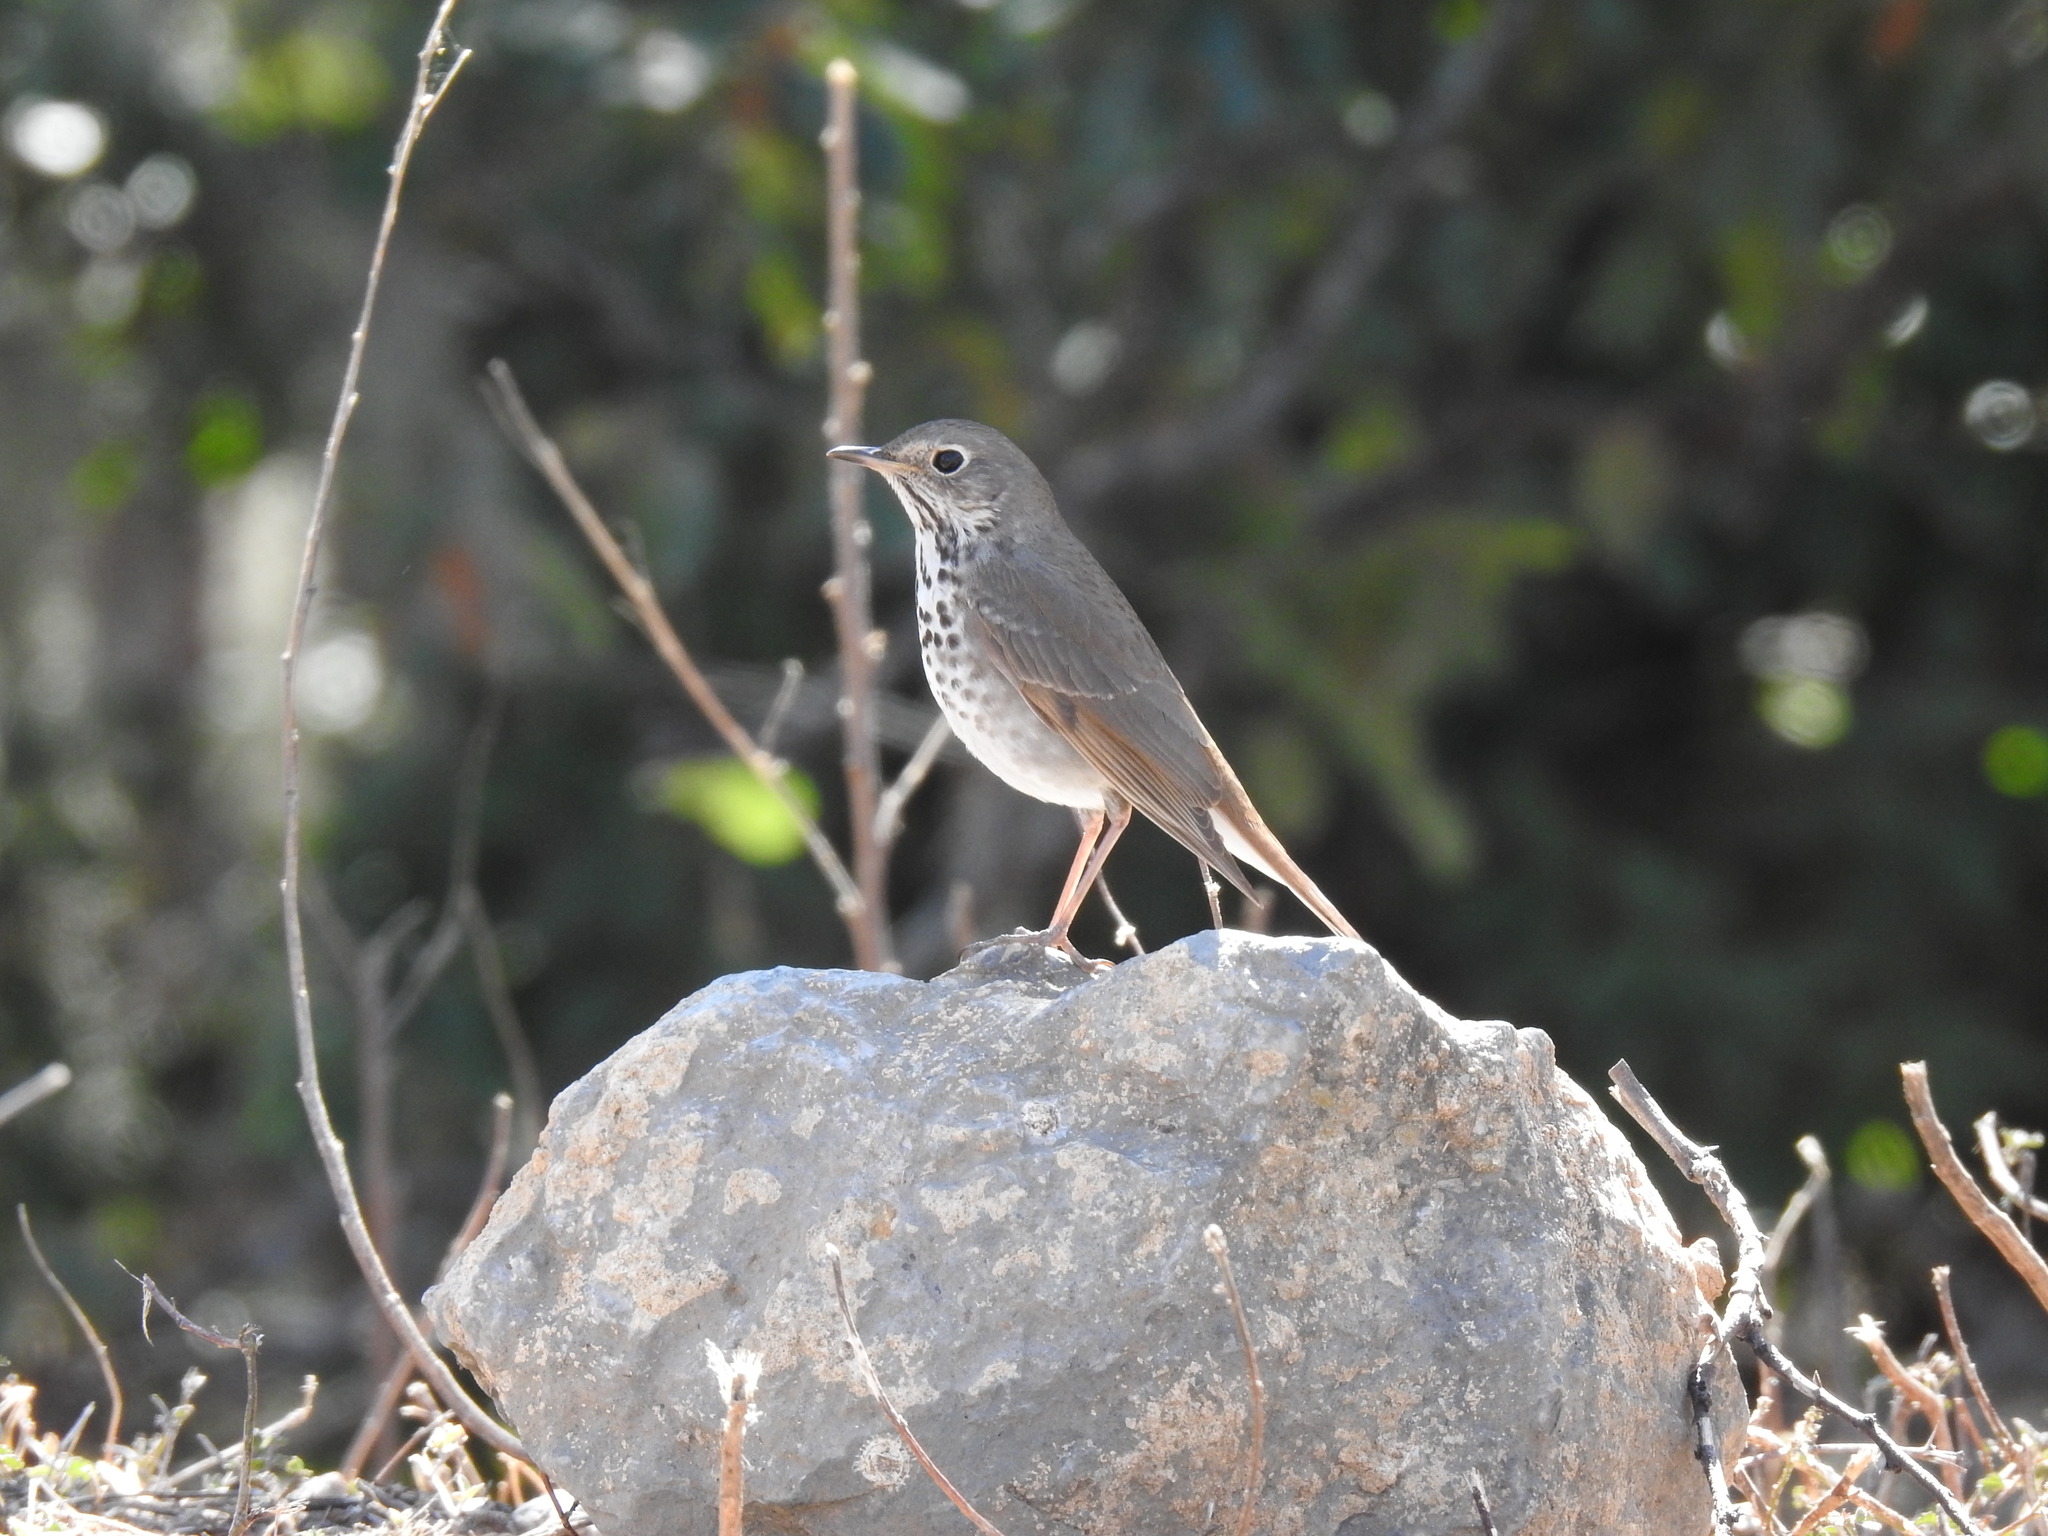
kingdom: Animalia
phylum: Chordata
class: Aves
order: Passeriformes
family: Turdidae
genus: Catharus
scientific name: Catharus guttatus
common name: Hermit thrush
